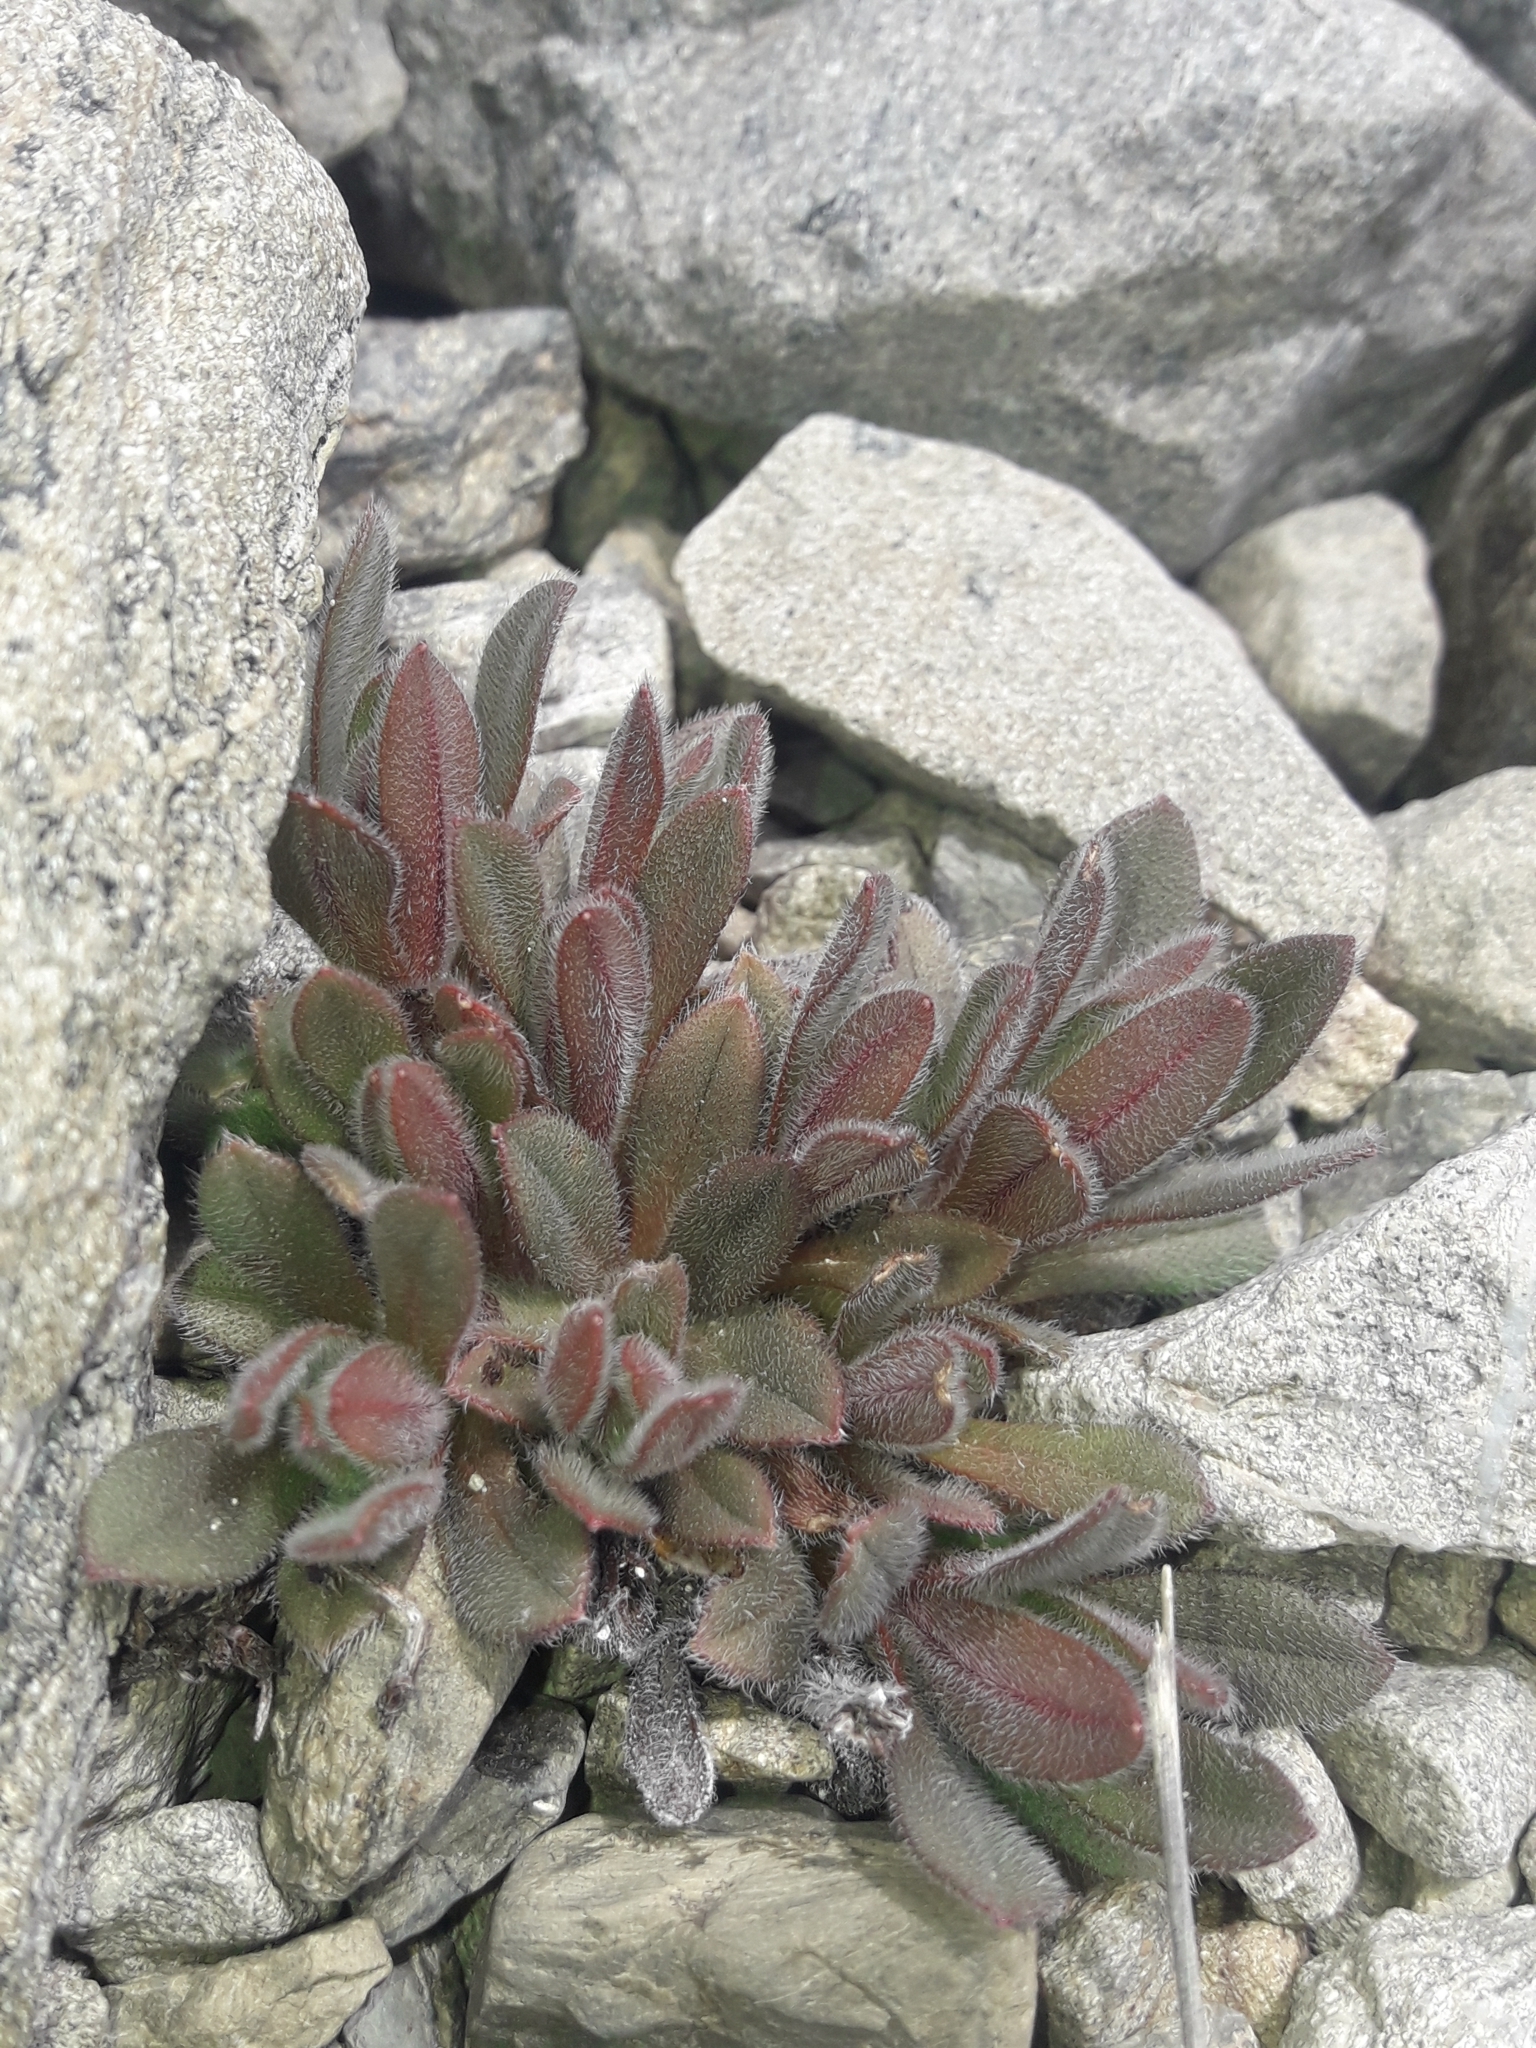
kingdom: Plantae
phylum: Tracheophyta
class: Magnoliopsida
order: Boraginales
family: Boraginaceae
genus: Myosotis
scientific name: Myosotis traversii
